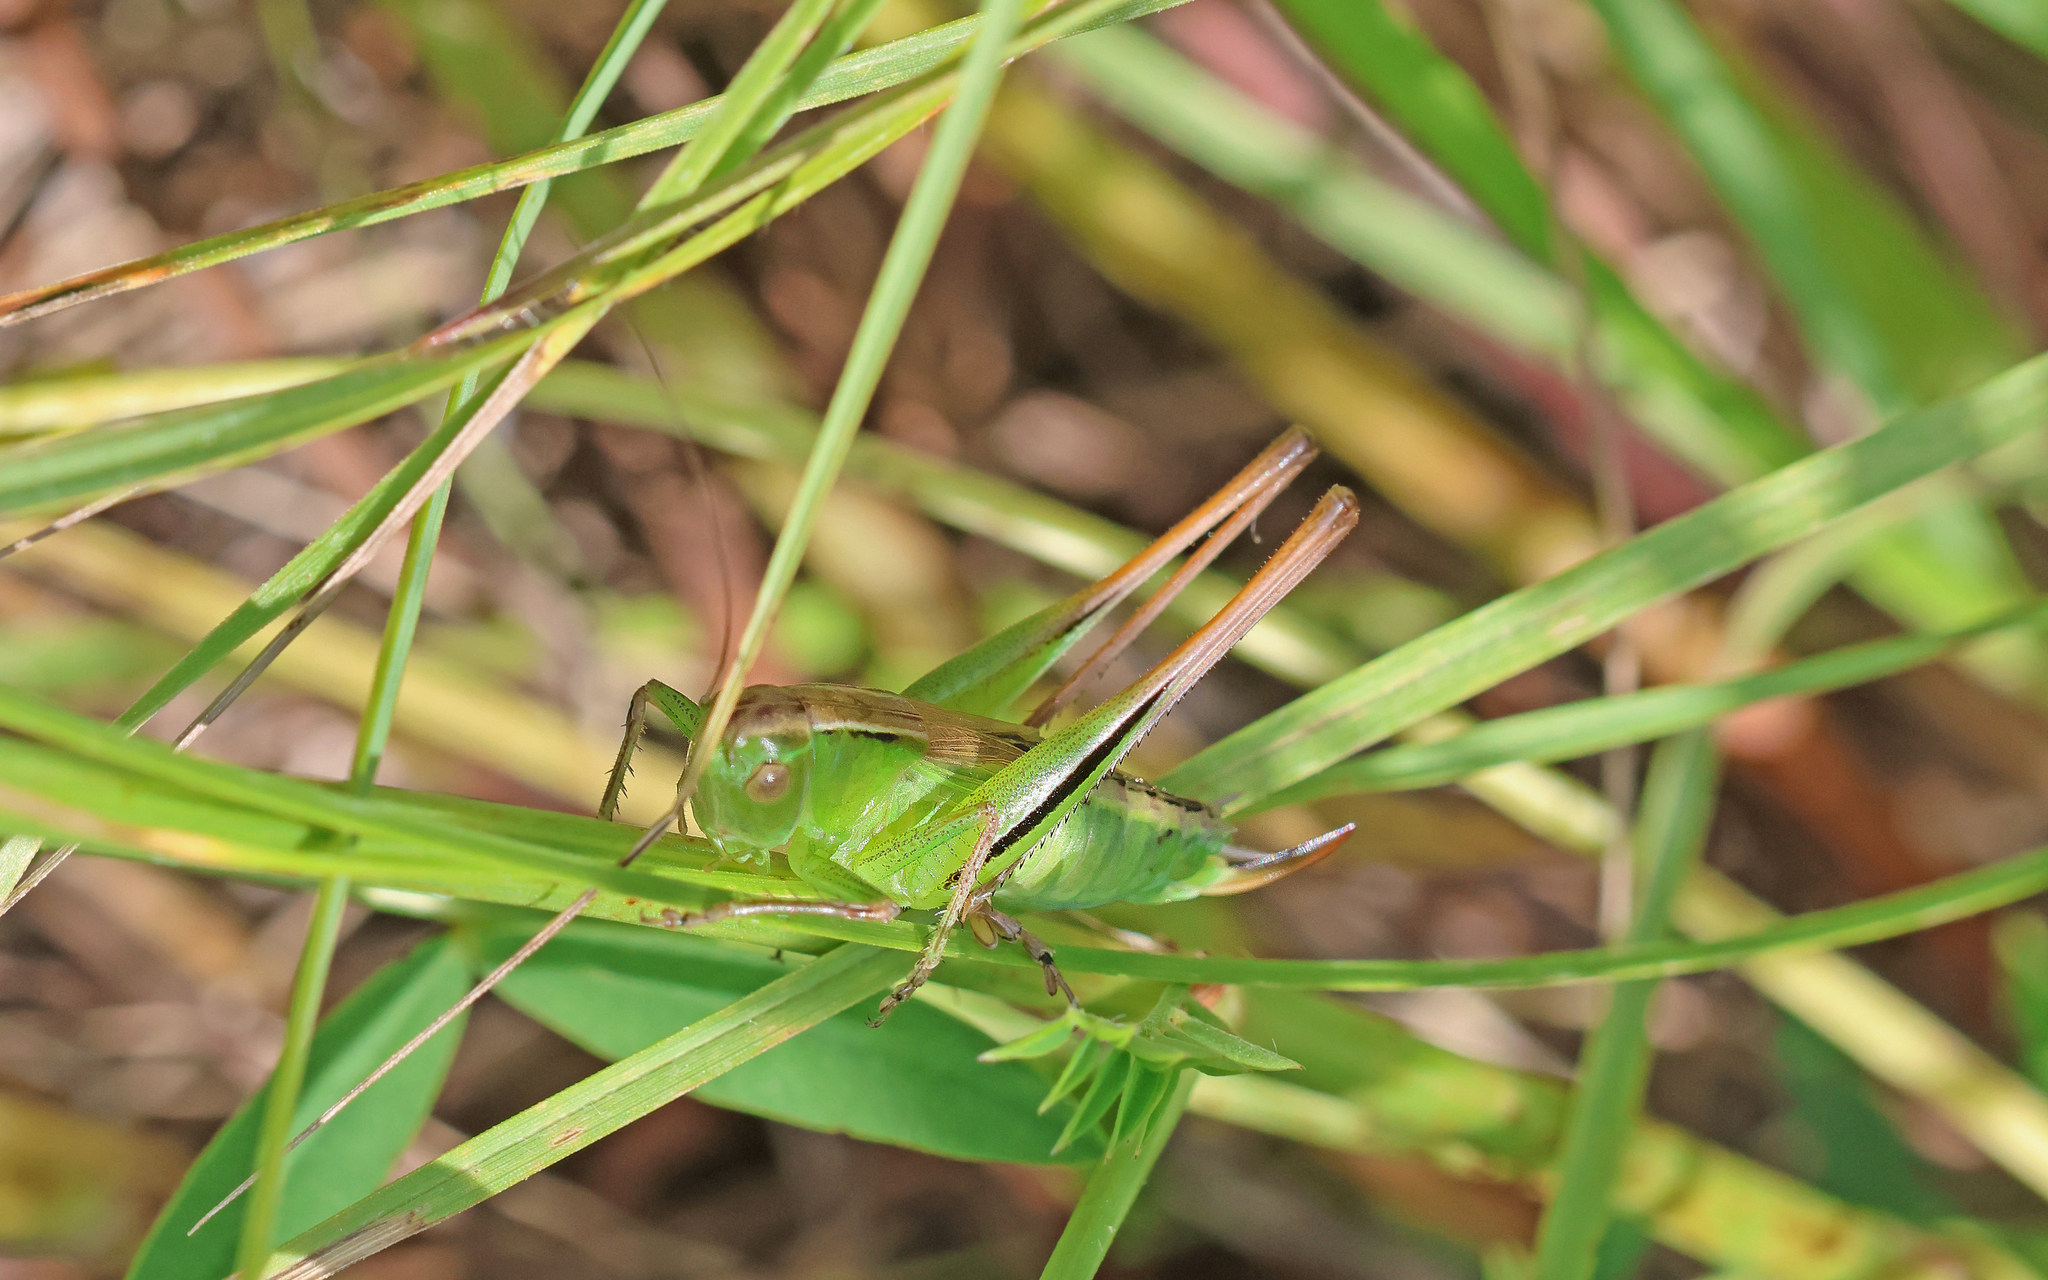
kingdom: Animalia
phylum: Arthropoda
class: Insecta
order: Orthoptera
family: Tettigoniidae
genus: Bicolorana
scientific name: Bicolorana bicolor
